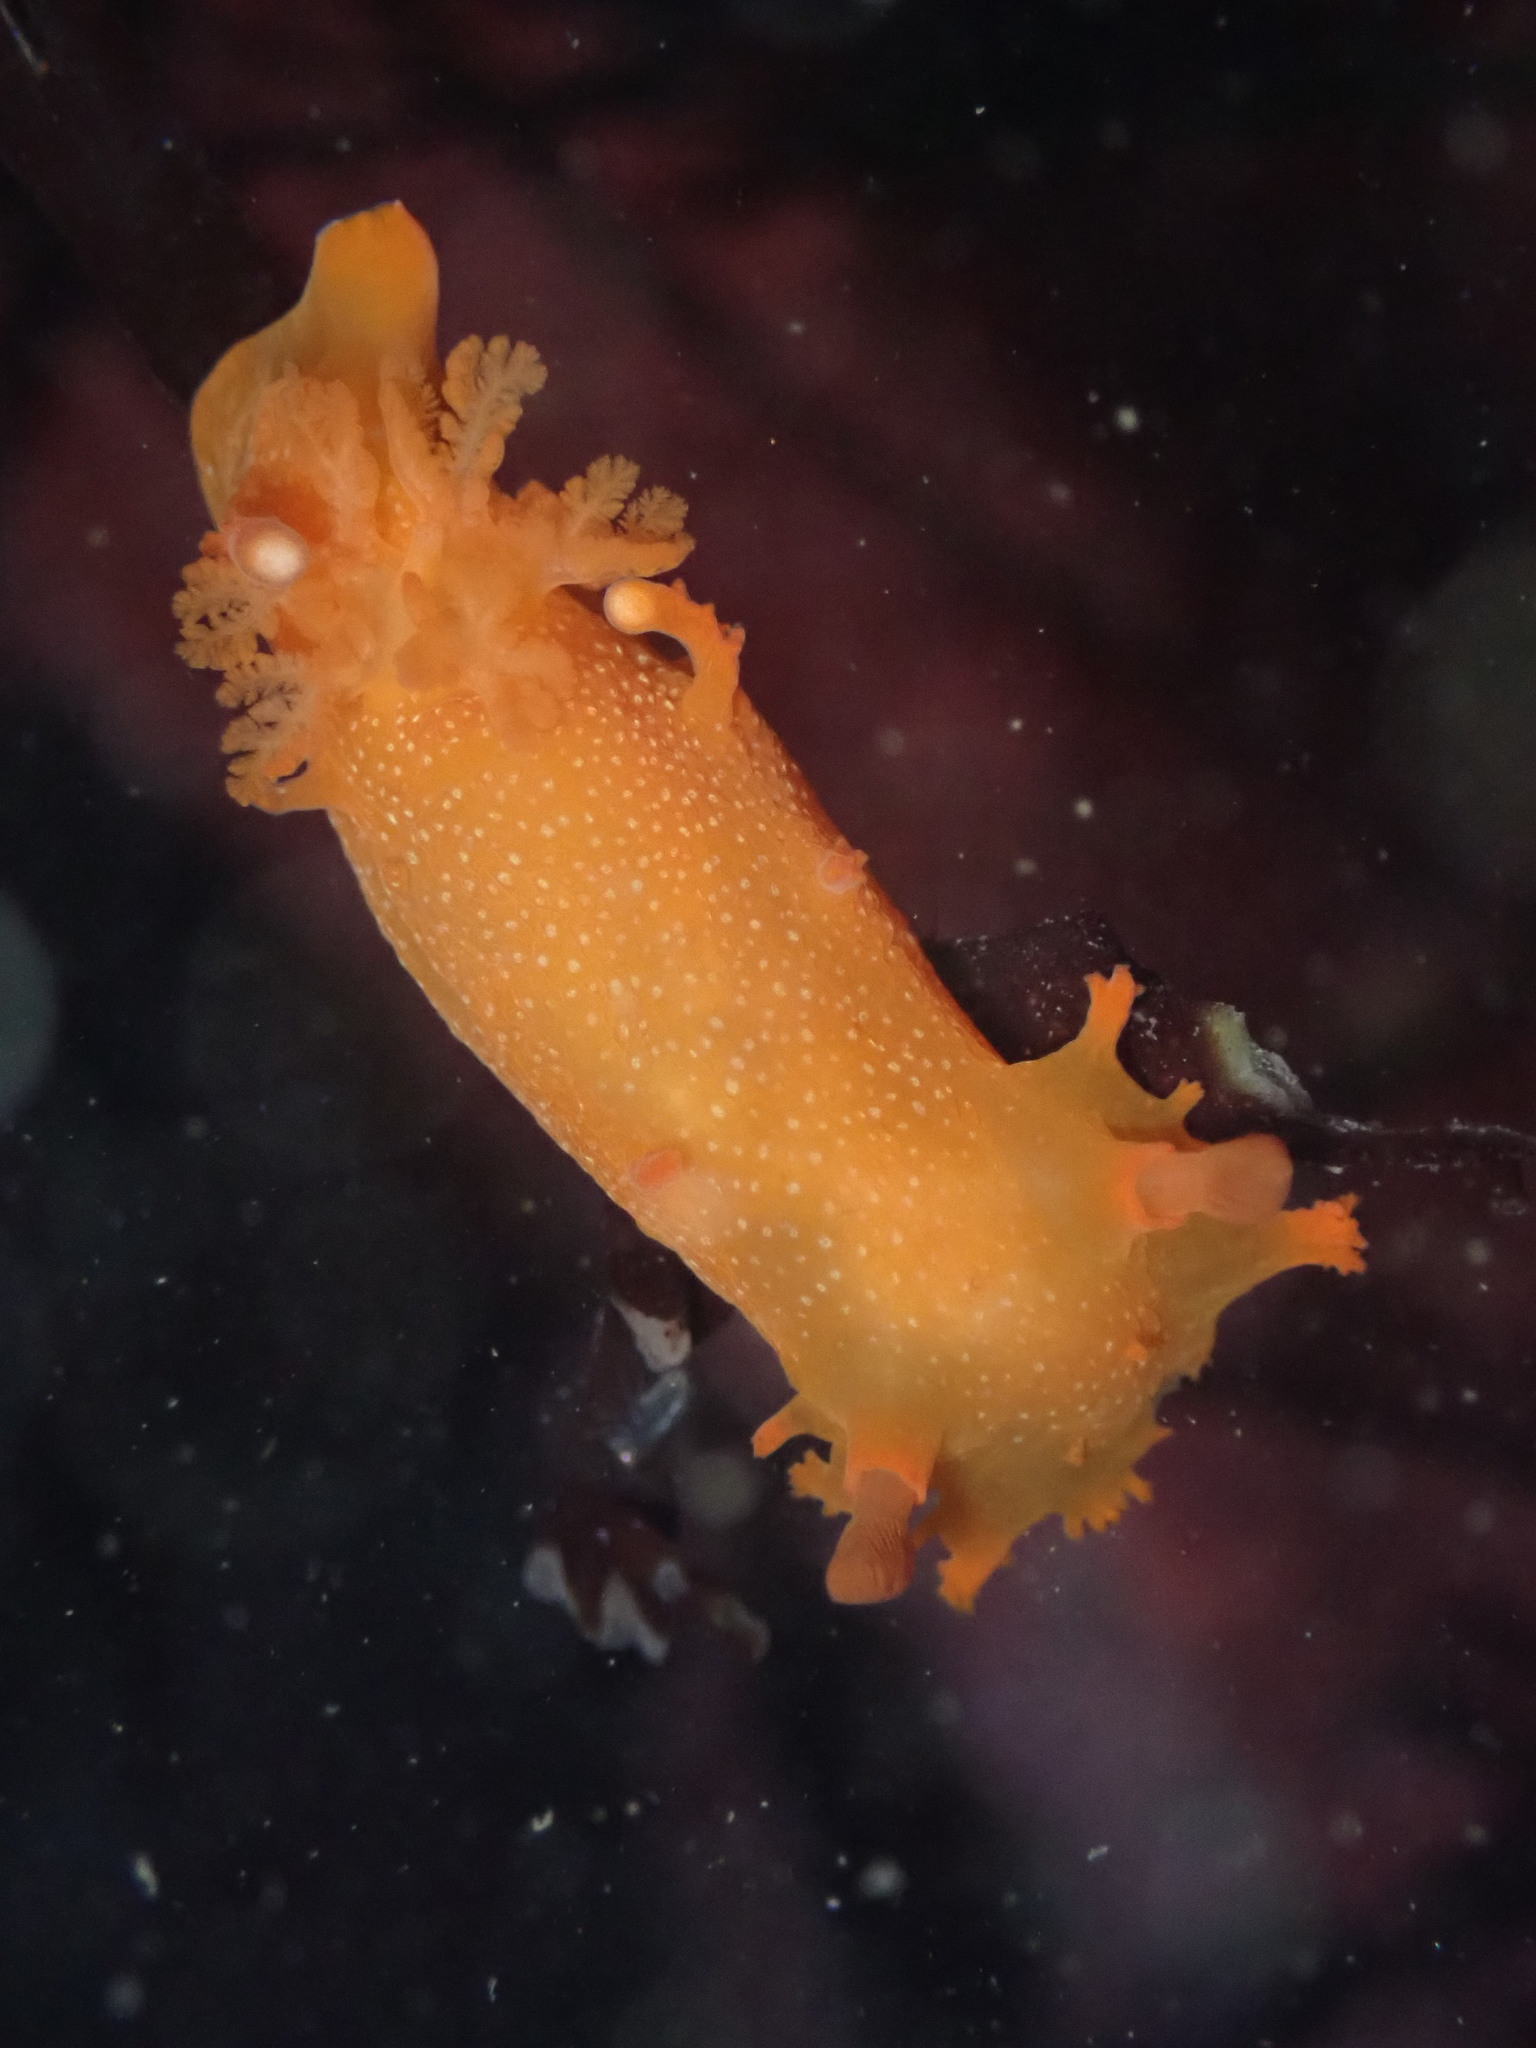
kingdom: Animalia
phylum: Mollusca
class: Gastropoda
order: Nudibranchia
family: Polyceridae
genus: Triopha
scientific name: Triopha maculata
